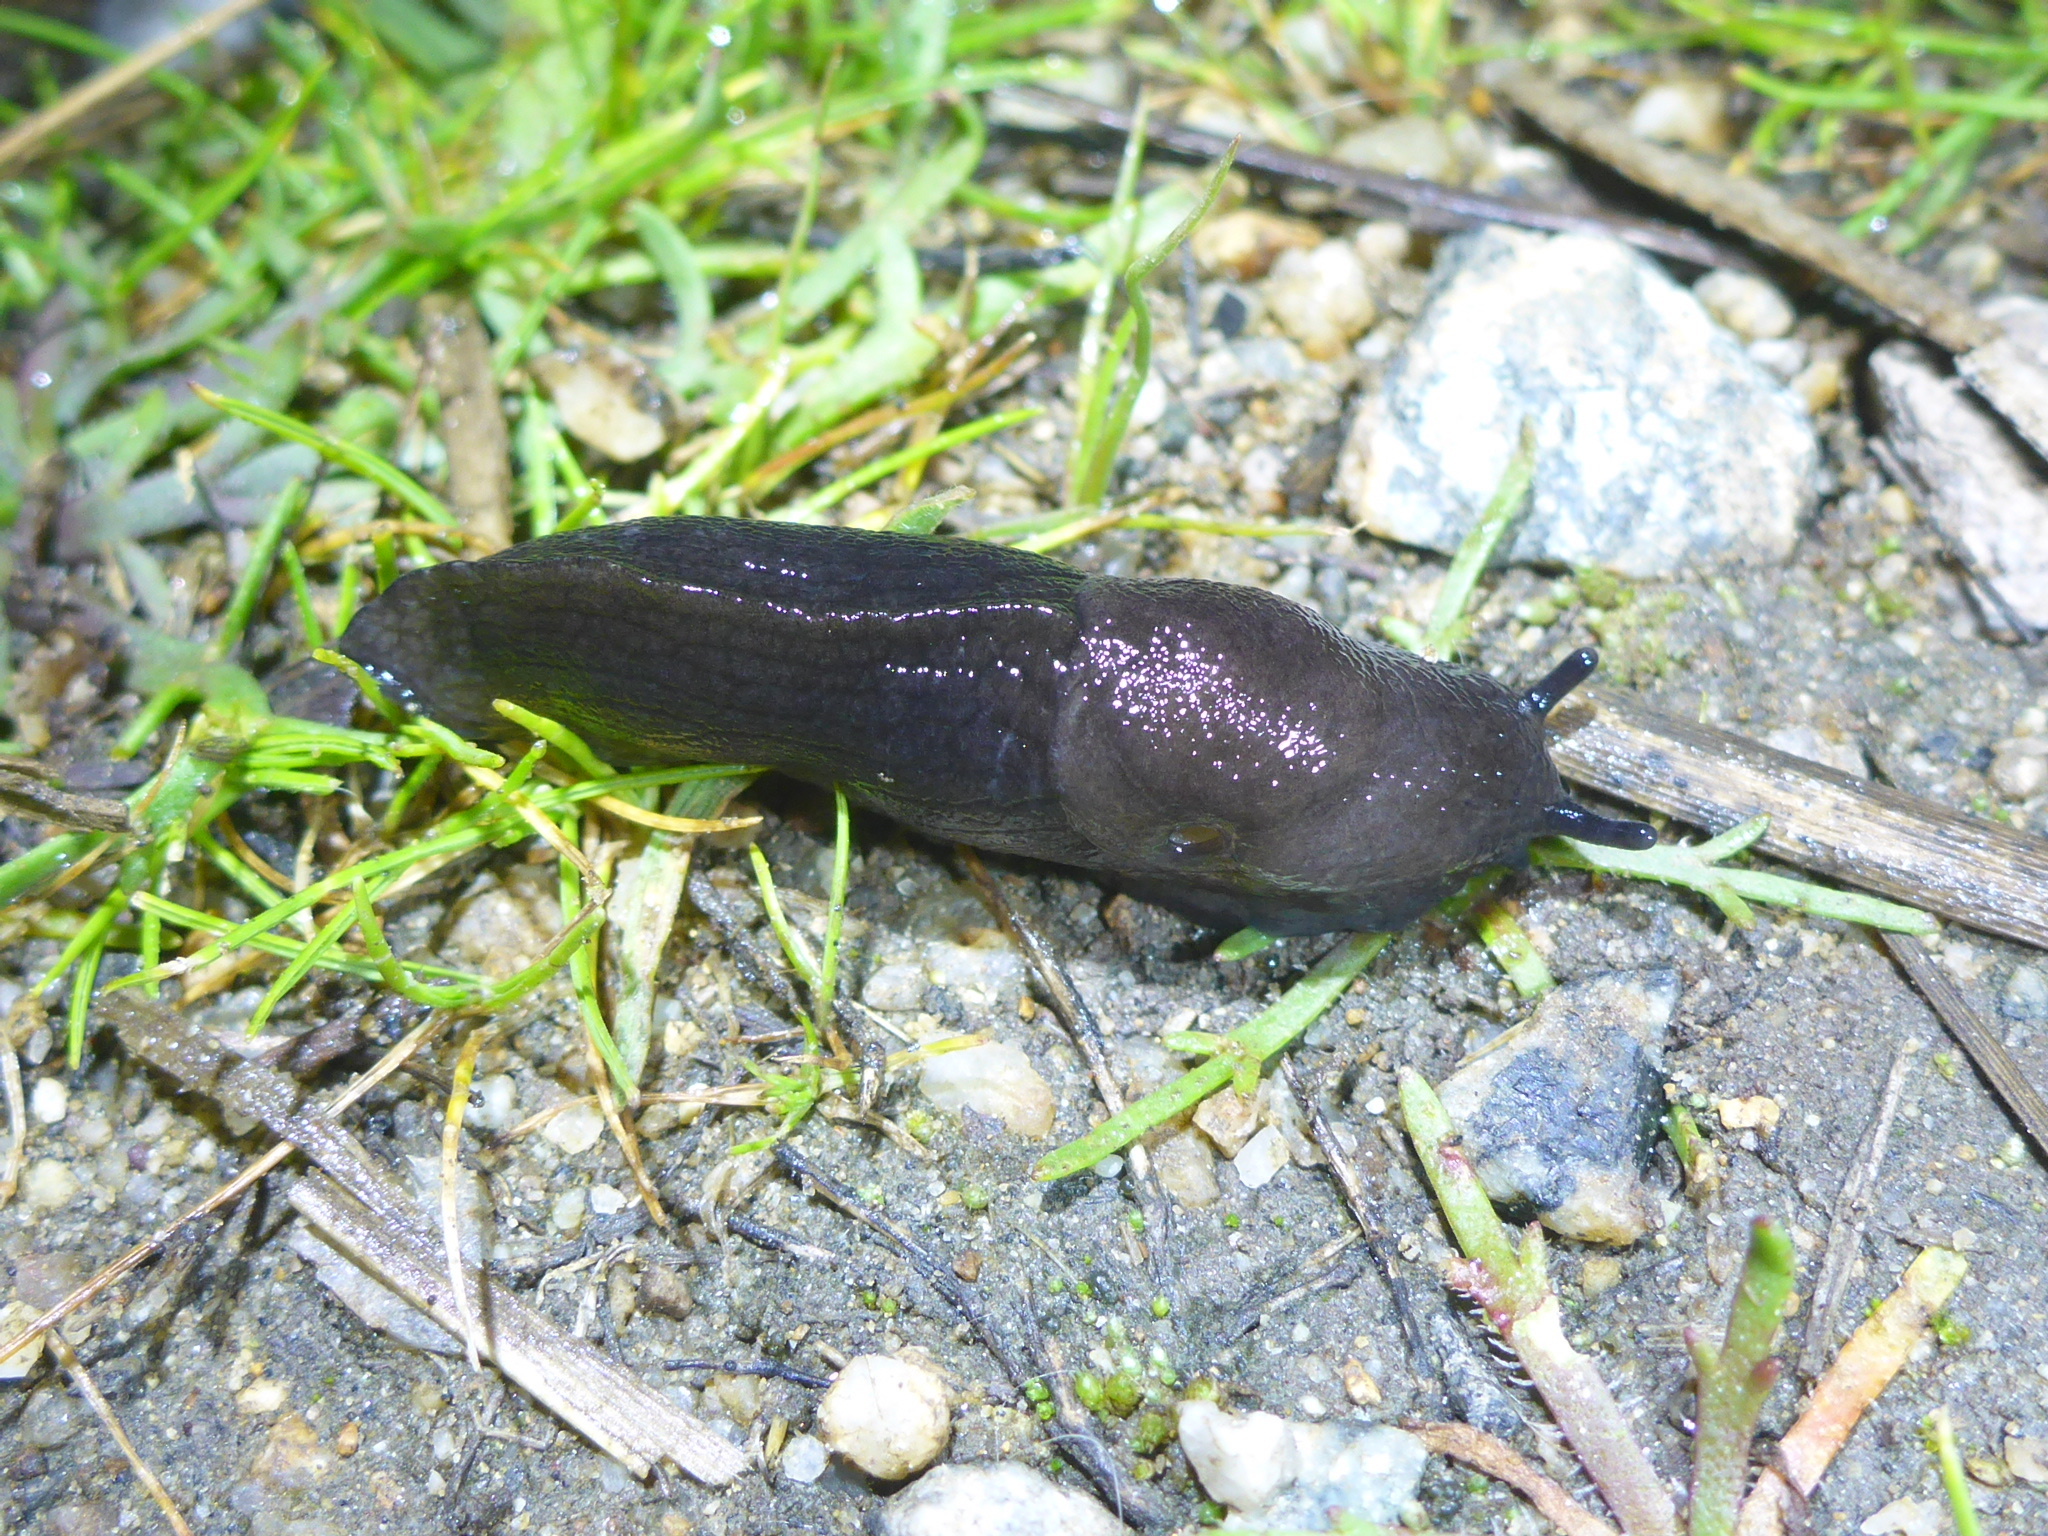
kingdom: Animalia
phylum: Mollusca
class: Gastropoda
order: Stylommatophora
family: Milacidae
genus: Milax
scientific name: Milax gagates
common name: Greenhouse slug
